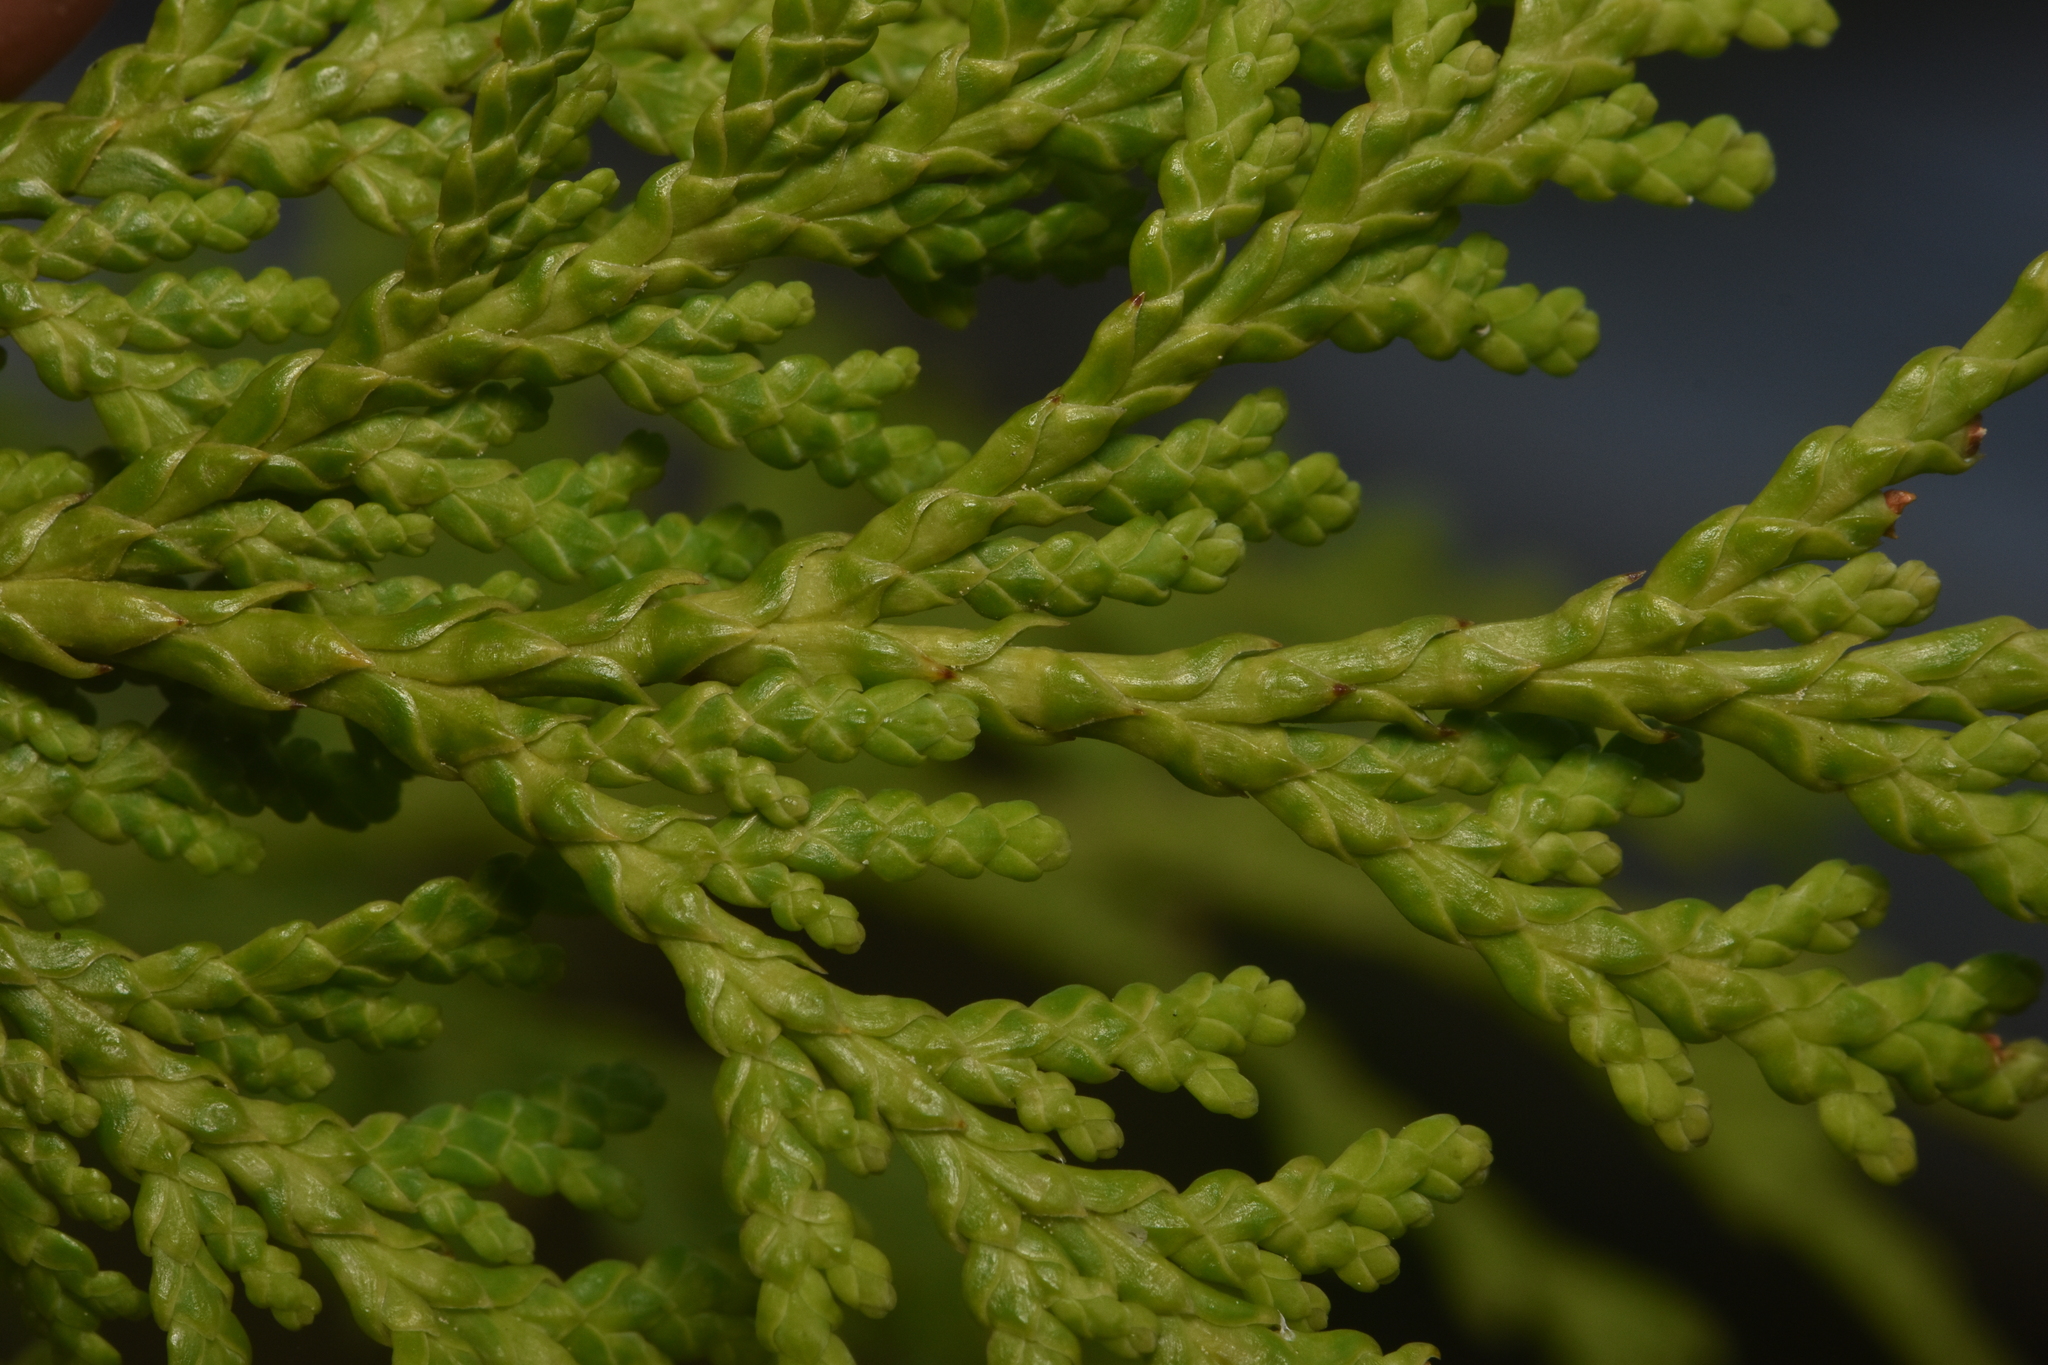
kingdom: Plantae
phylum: Tracheophyta
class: Pinopsida
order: Pinales
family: Cupressaceae
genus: Xanthocyparis
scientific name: Xanthocyparis nootkatensis
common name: Nootka cypress
